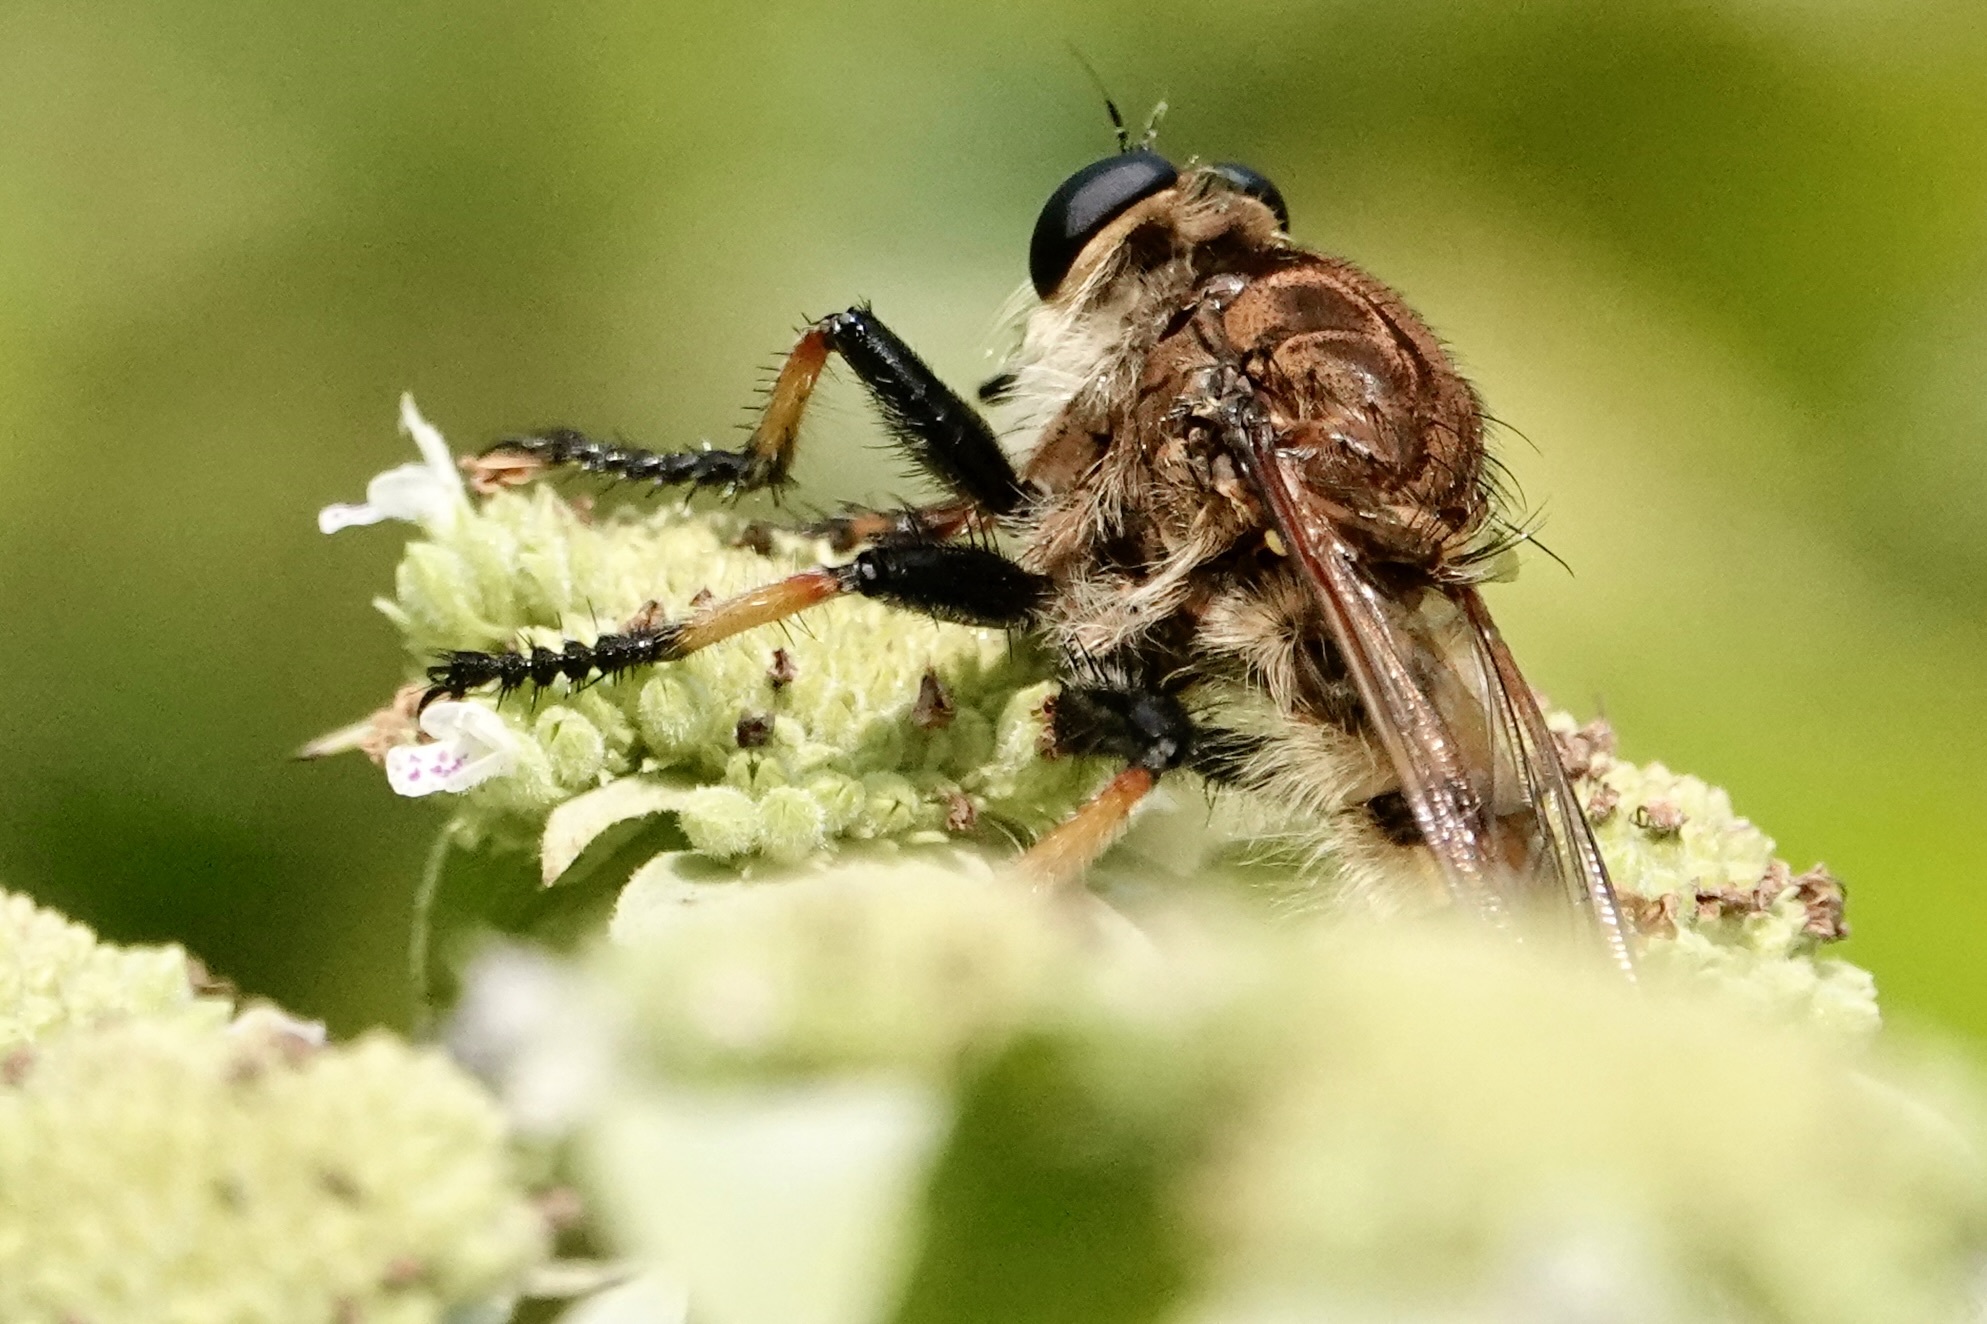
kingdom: Animalia
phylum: Arthropoda
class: Insecta
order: Diptera
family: Asilidae
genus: Promachus
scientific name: Promachus rufipes
